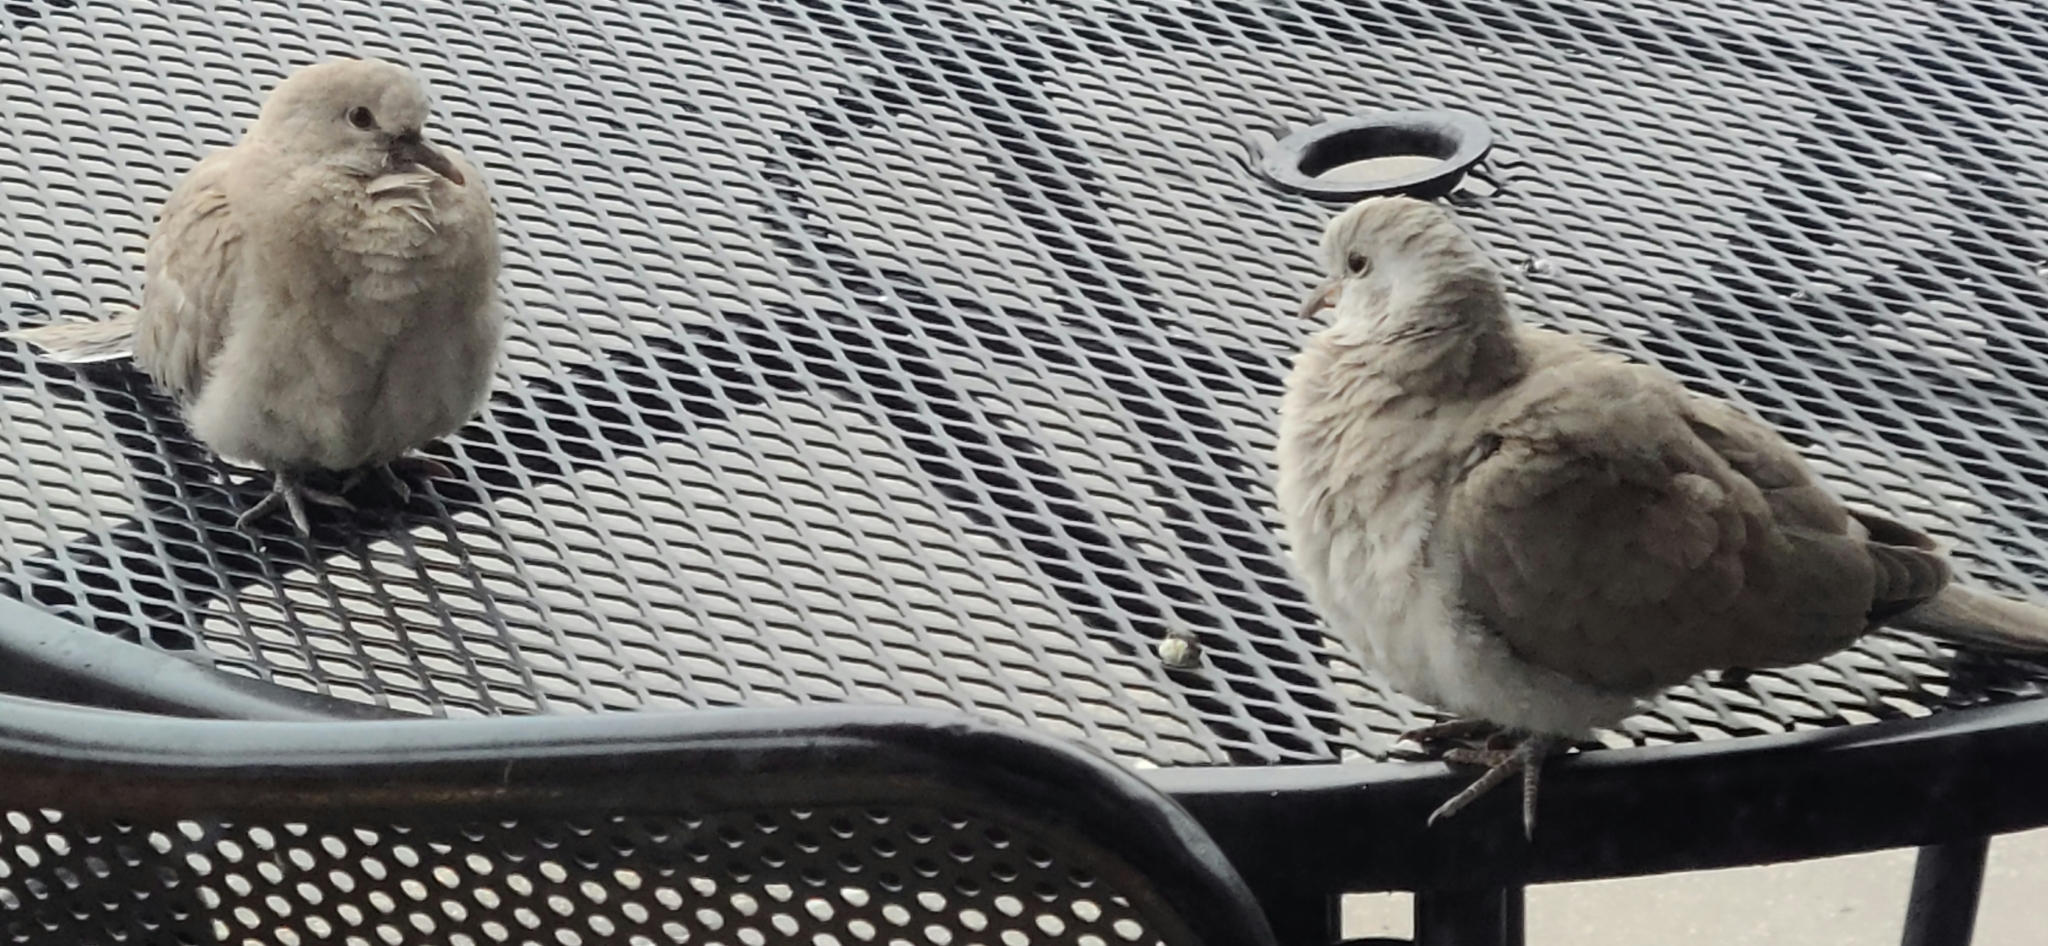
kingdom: Animalia
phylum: Chordata
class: Aves
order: Columbiformes
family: Columbidae
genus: Streptopelia
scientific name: Streptopelia decaocto
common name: Eurasian collared dove
